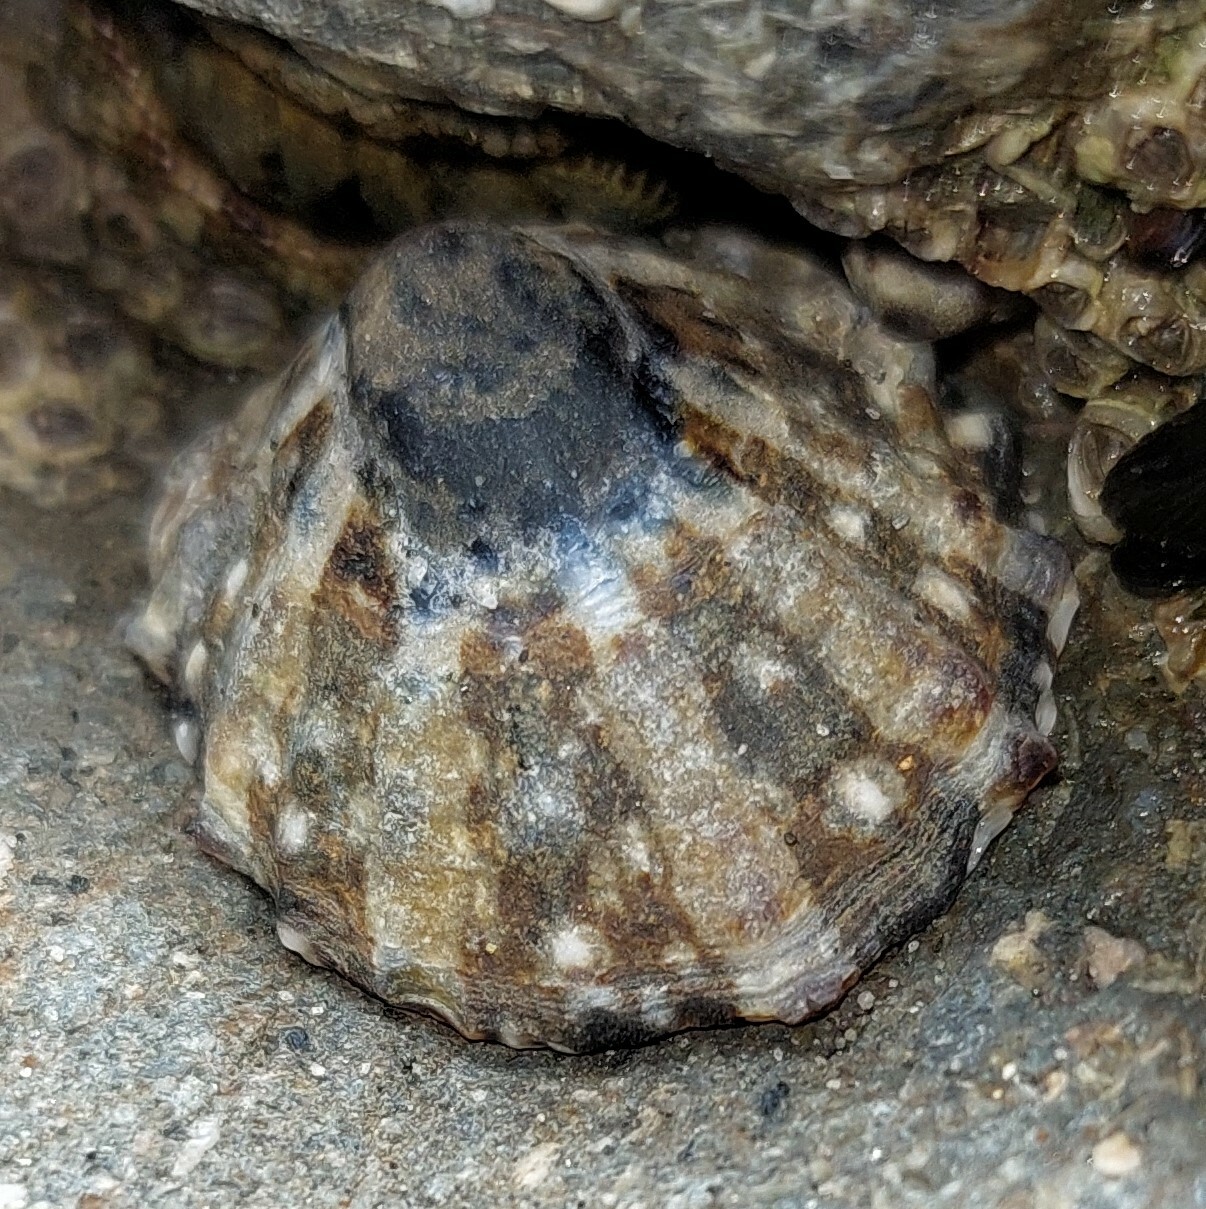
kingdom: Animalia
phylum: Mollusca
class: Gastropoda
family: Nacellidae
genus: Cellana
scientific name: Cellana ornata
